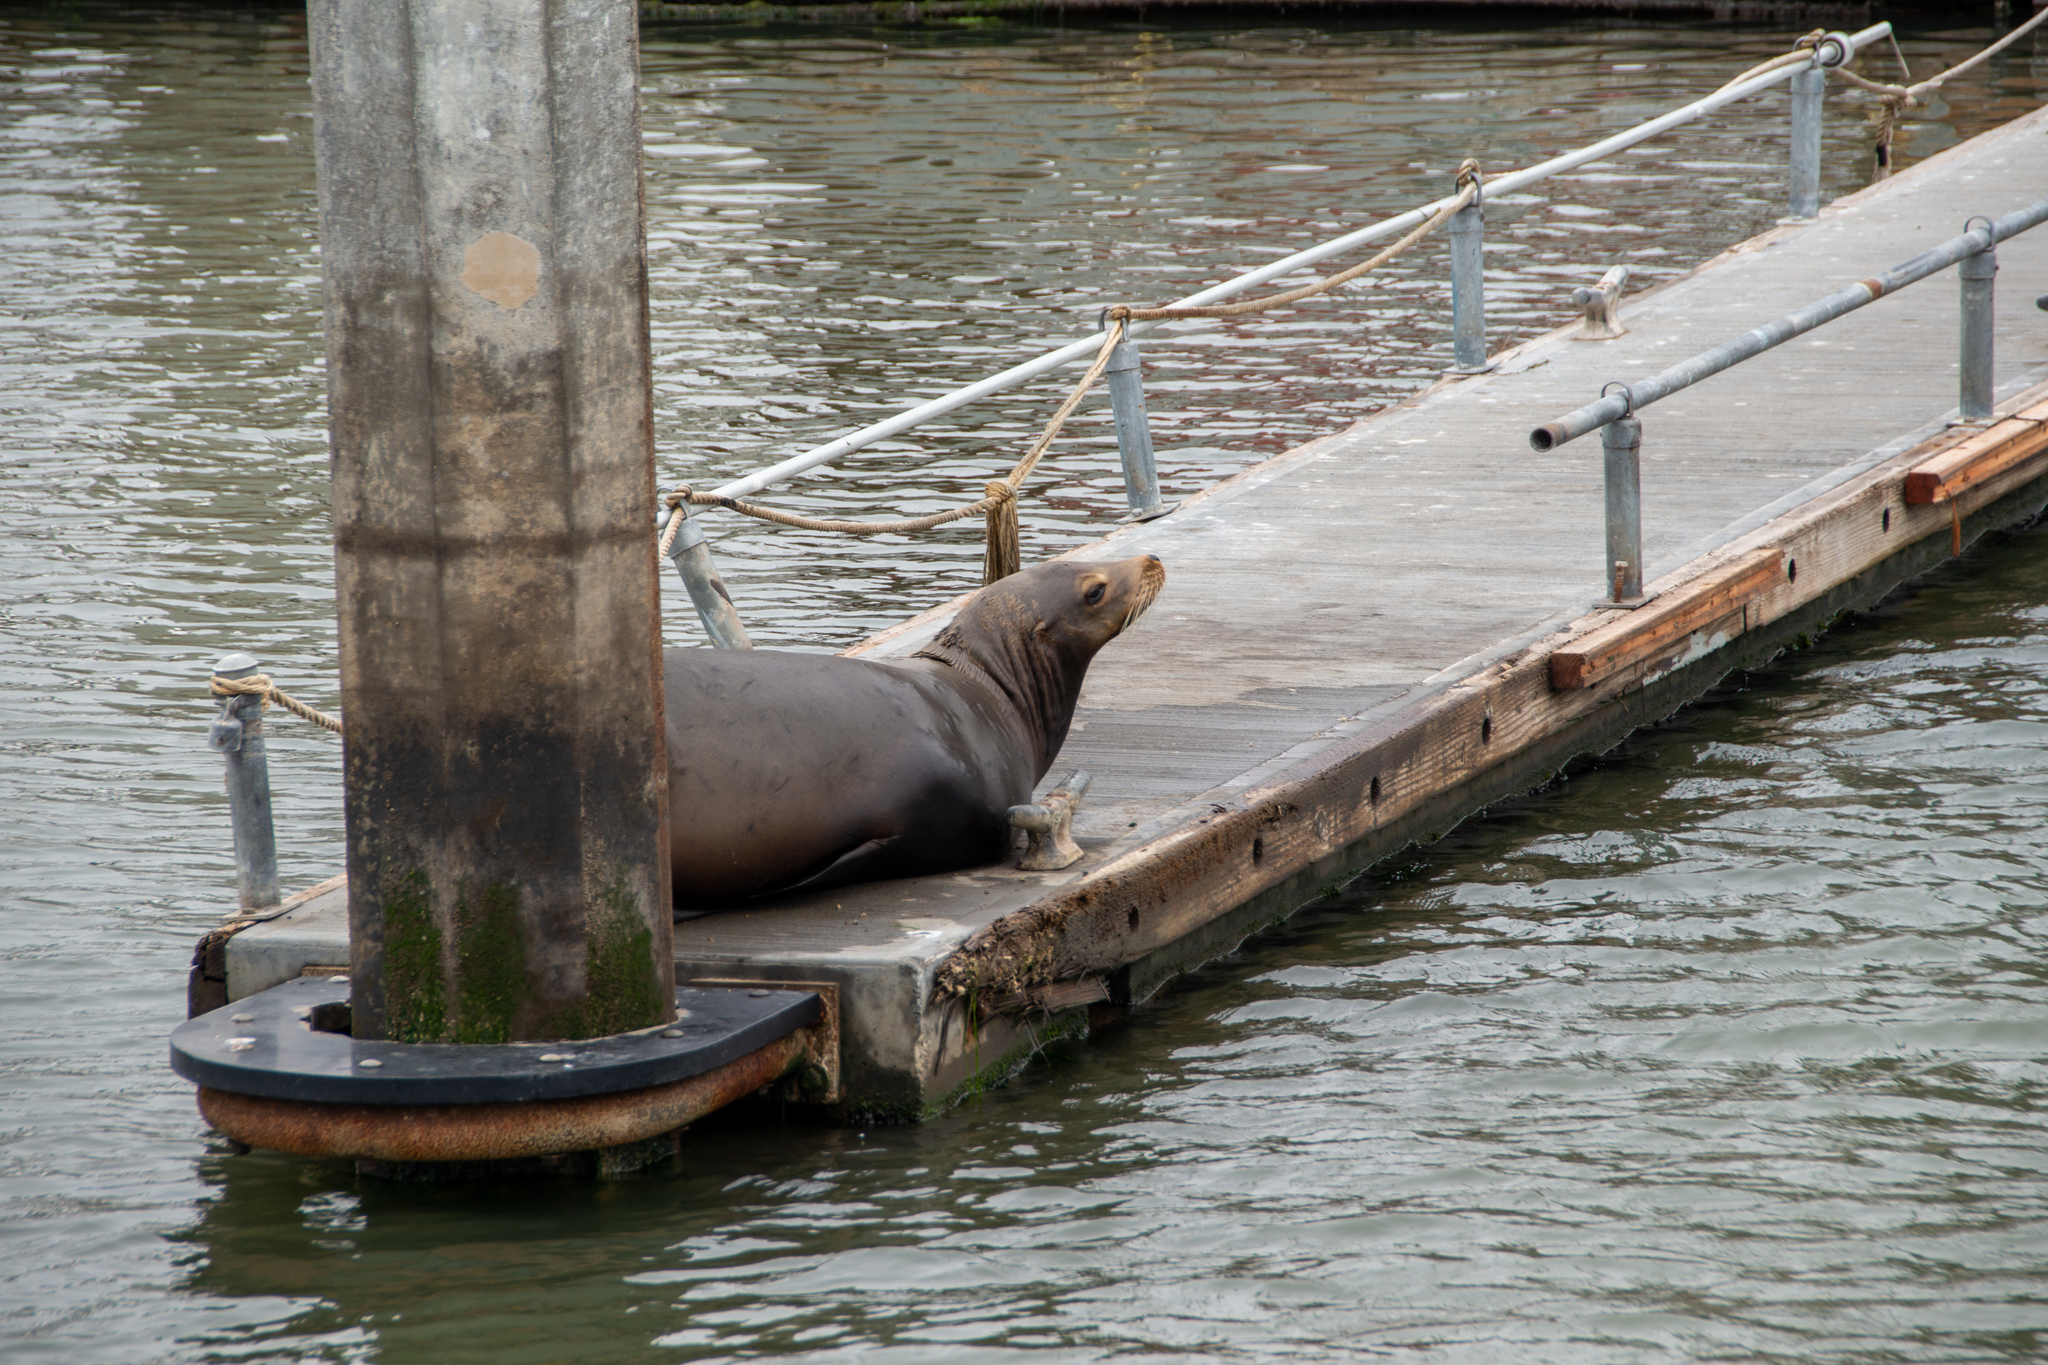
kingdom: Animalia
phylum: Chordata
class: Mammalia
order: Carnivora
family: Otariidae
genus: Zalophus
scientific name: Zalophus californianus
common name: California sea lion
